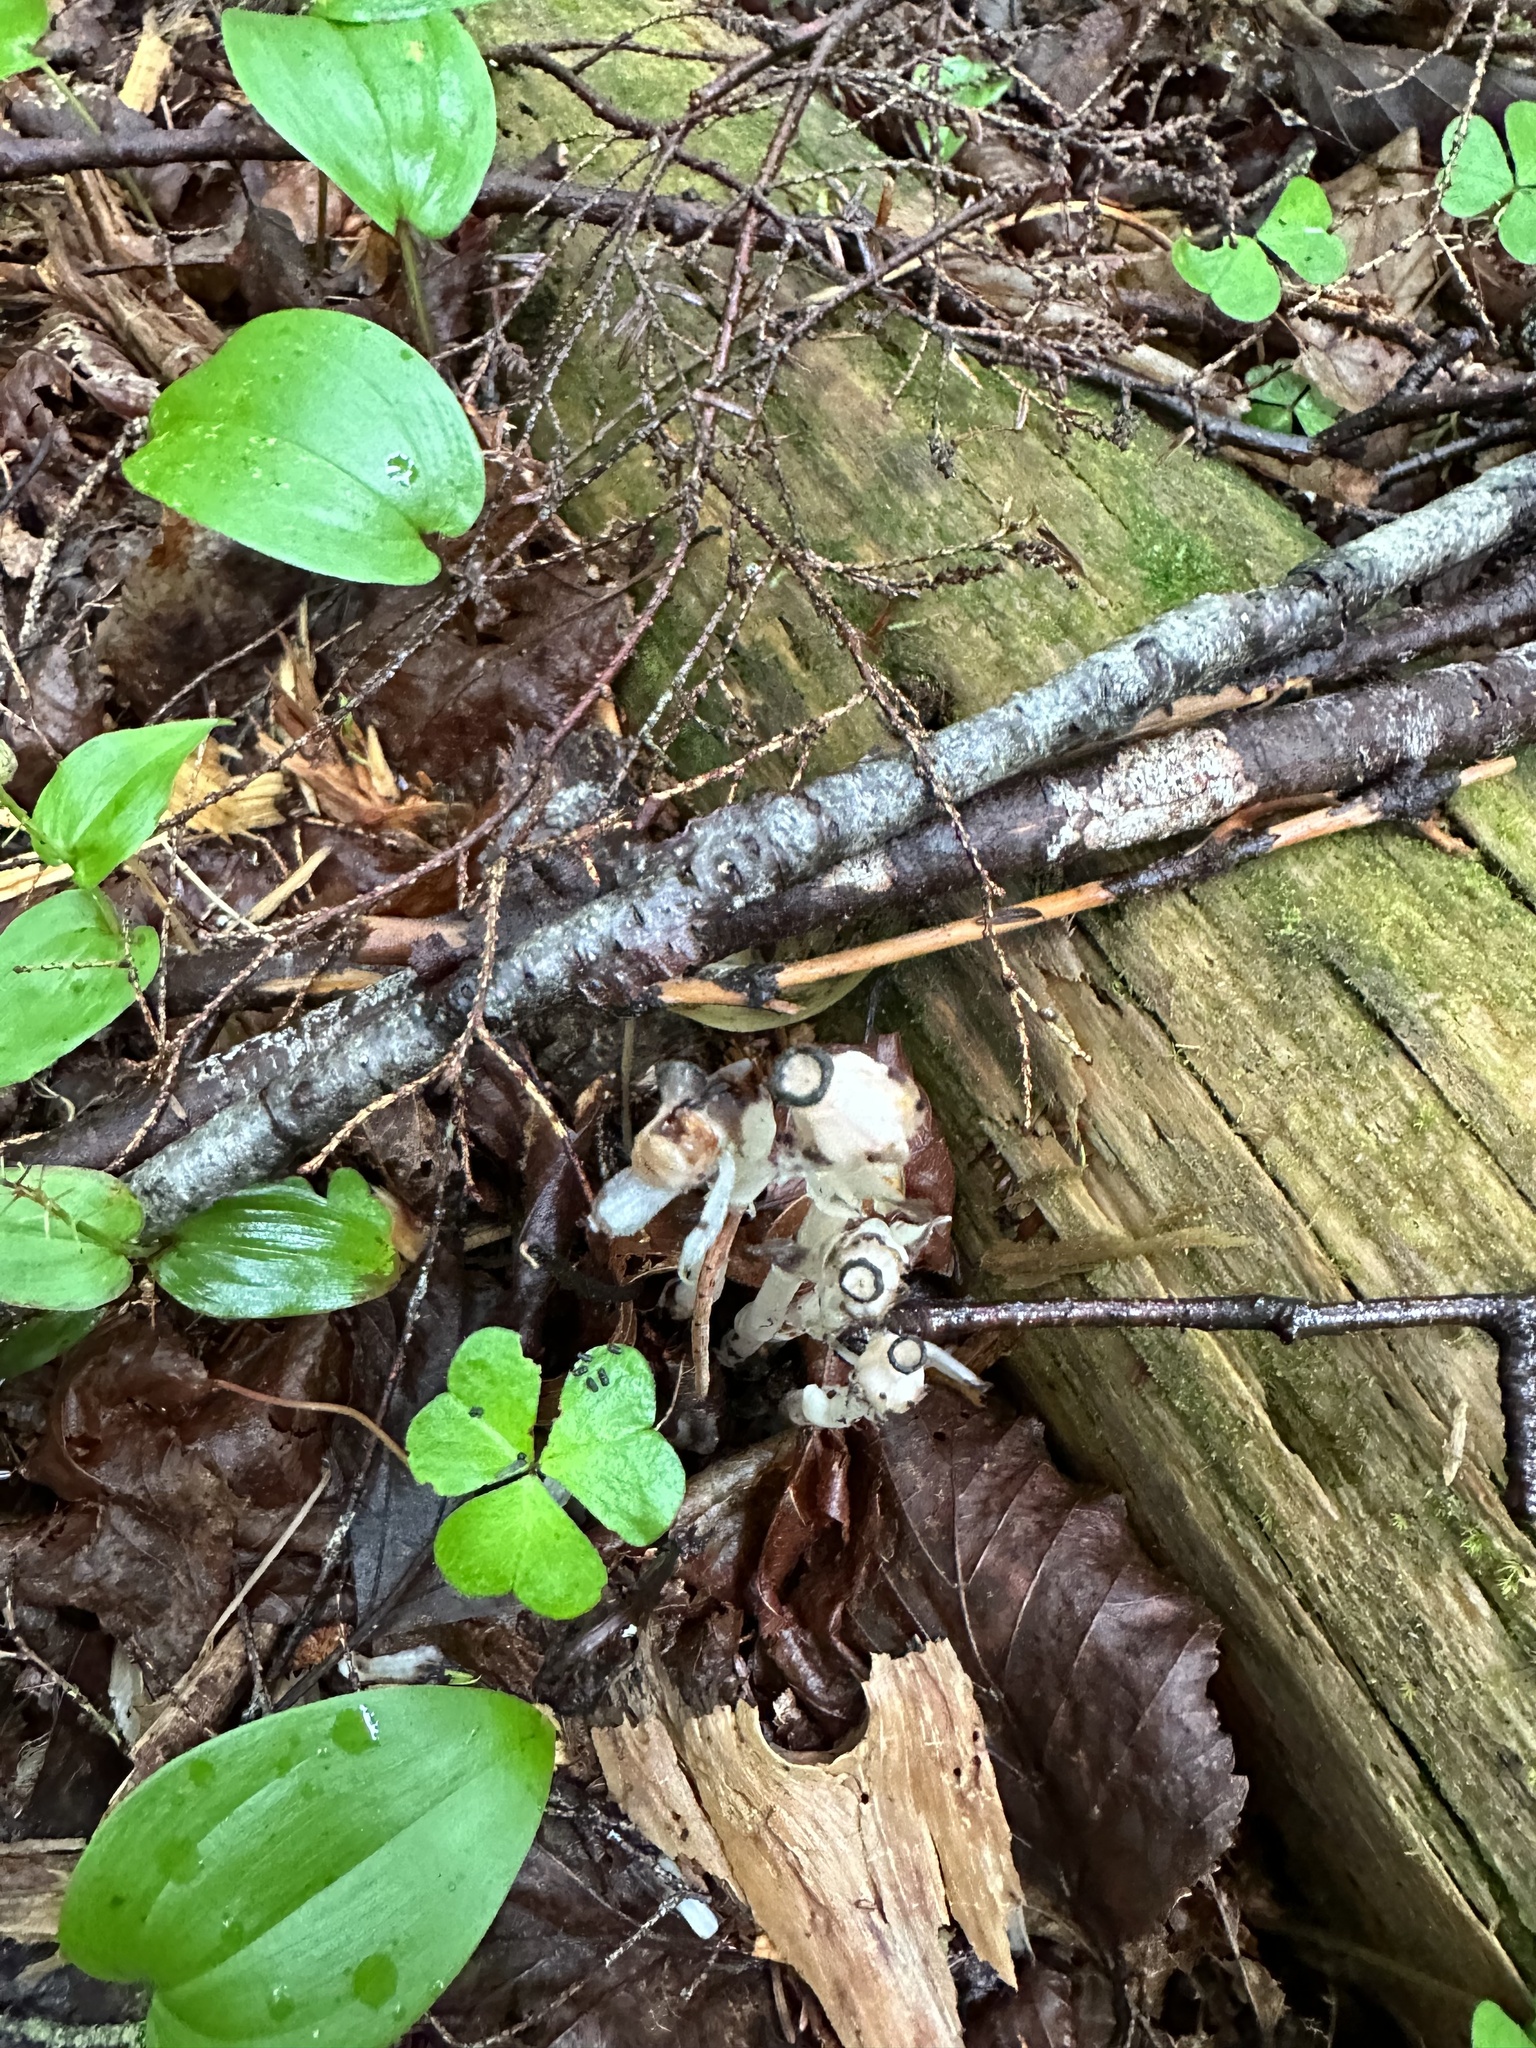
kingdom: Plantae
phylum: Tracheophyta
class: Magnoliopsida
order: Ericales
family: Ericaceae
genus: Monotropa
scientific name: Monotropa uniflora
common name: Convulsion root
